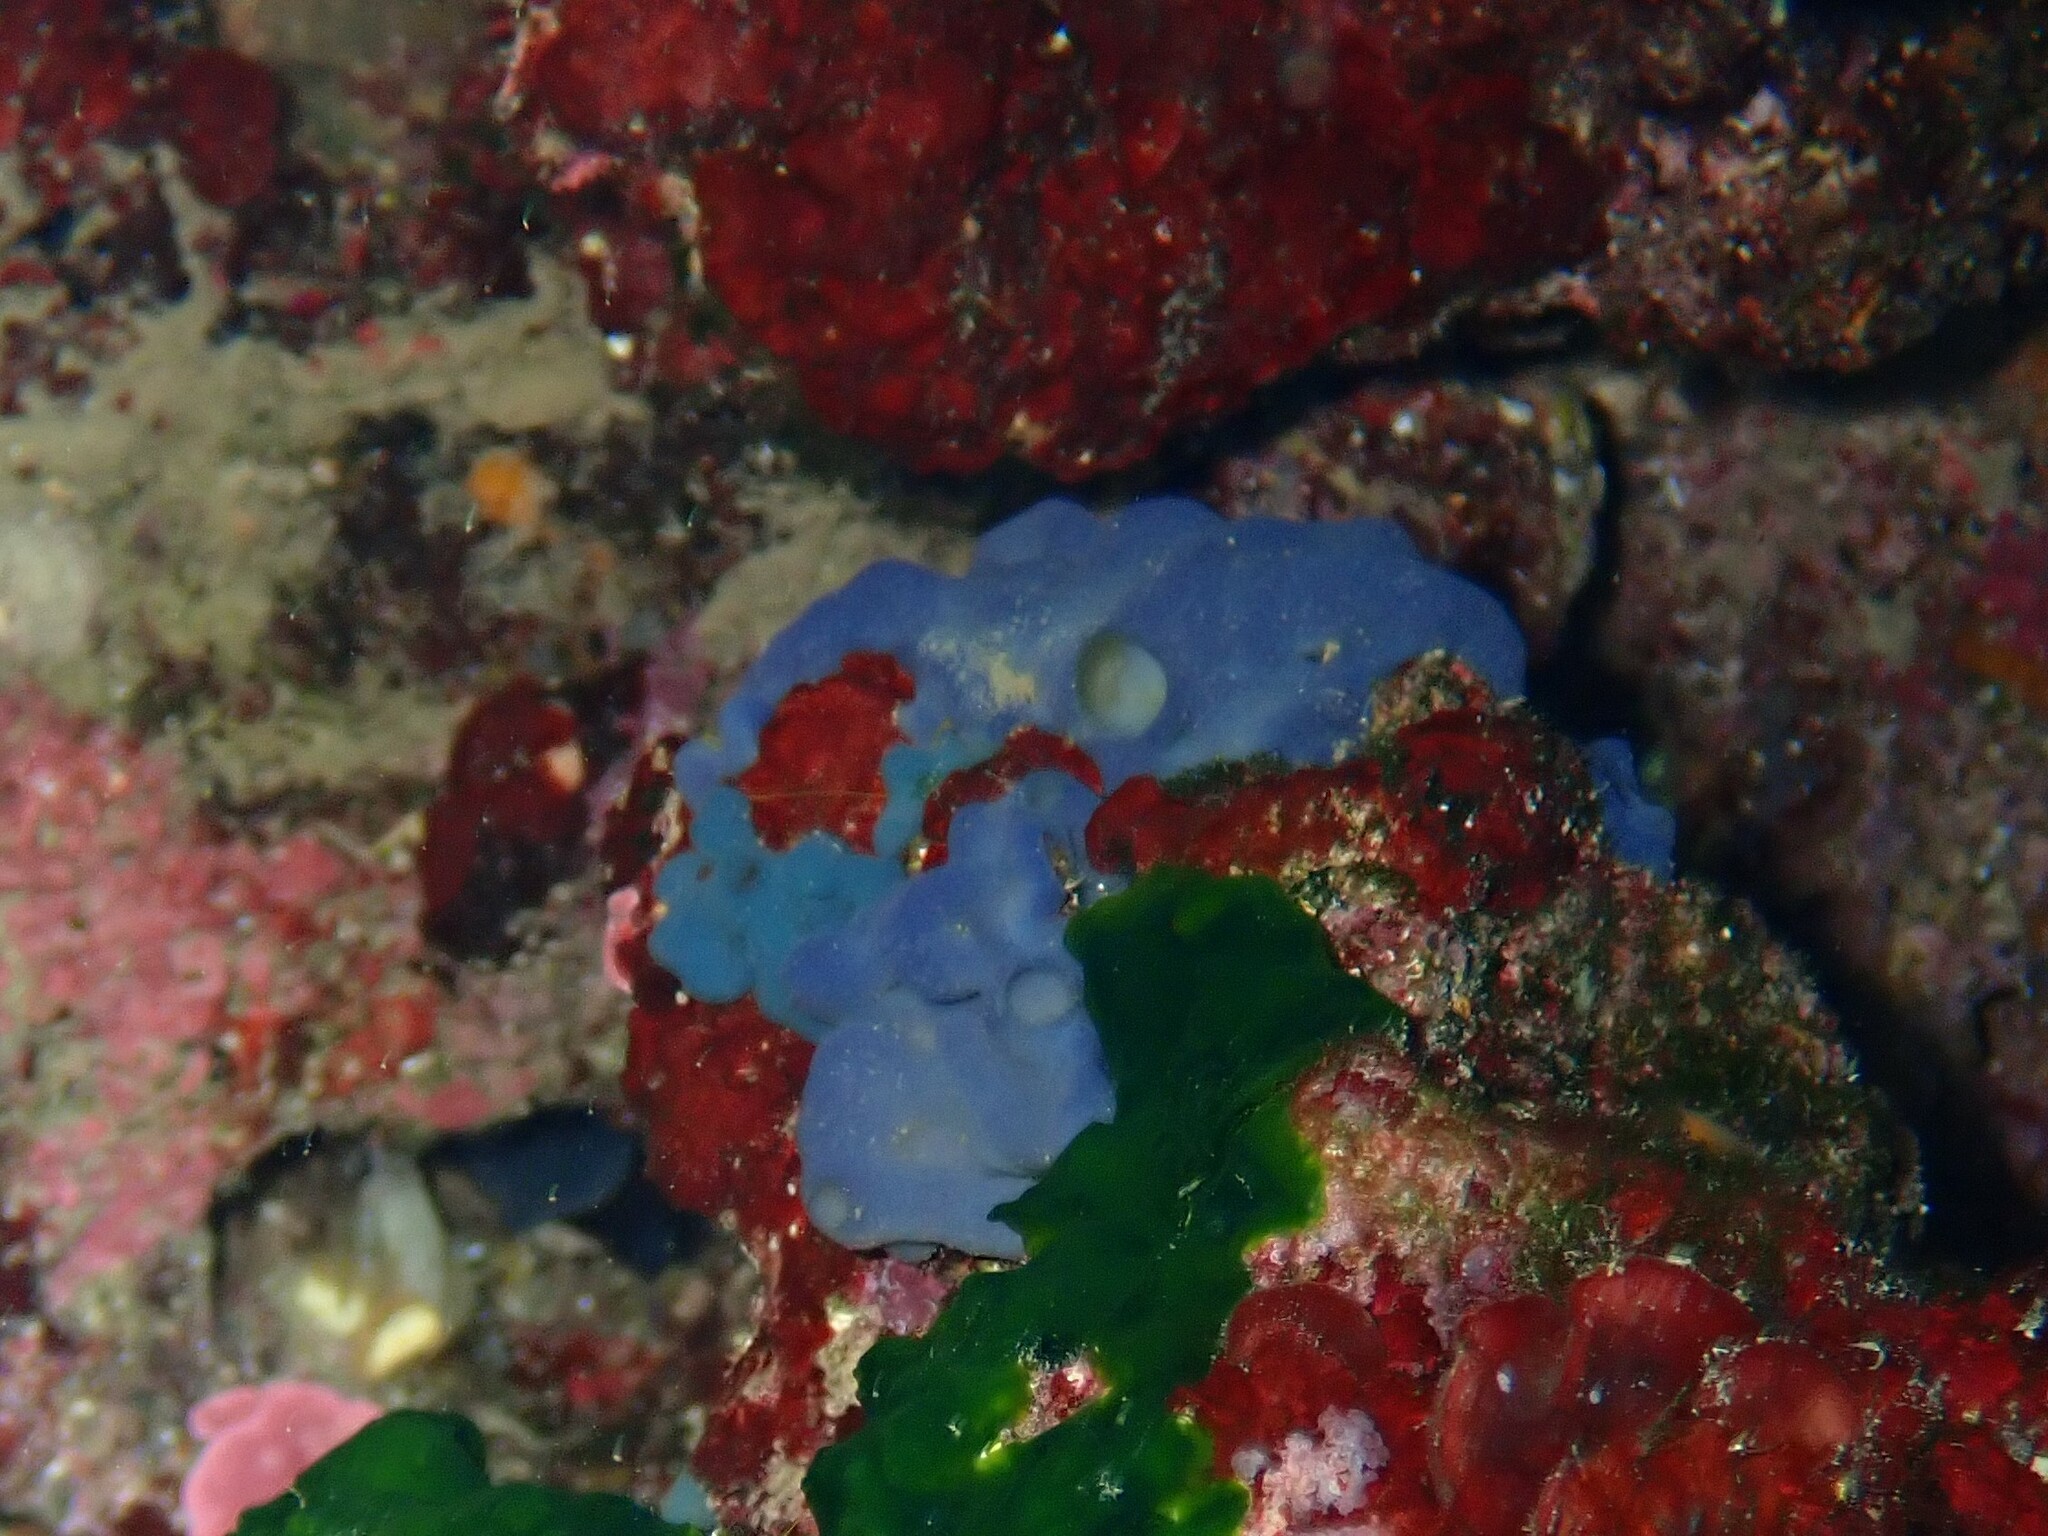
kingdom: Animalia
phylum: Porifera
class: Homoscleromorpha
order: Homosclerophorida
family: Oscarellidae
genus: Oscarella
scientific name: Oscarella lobularis
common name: Flesh sponge
